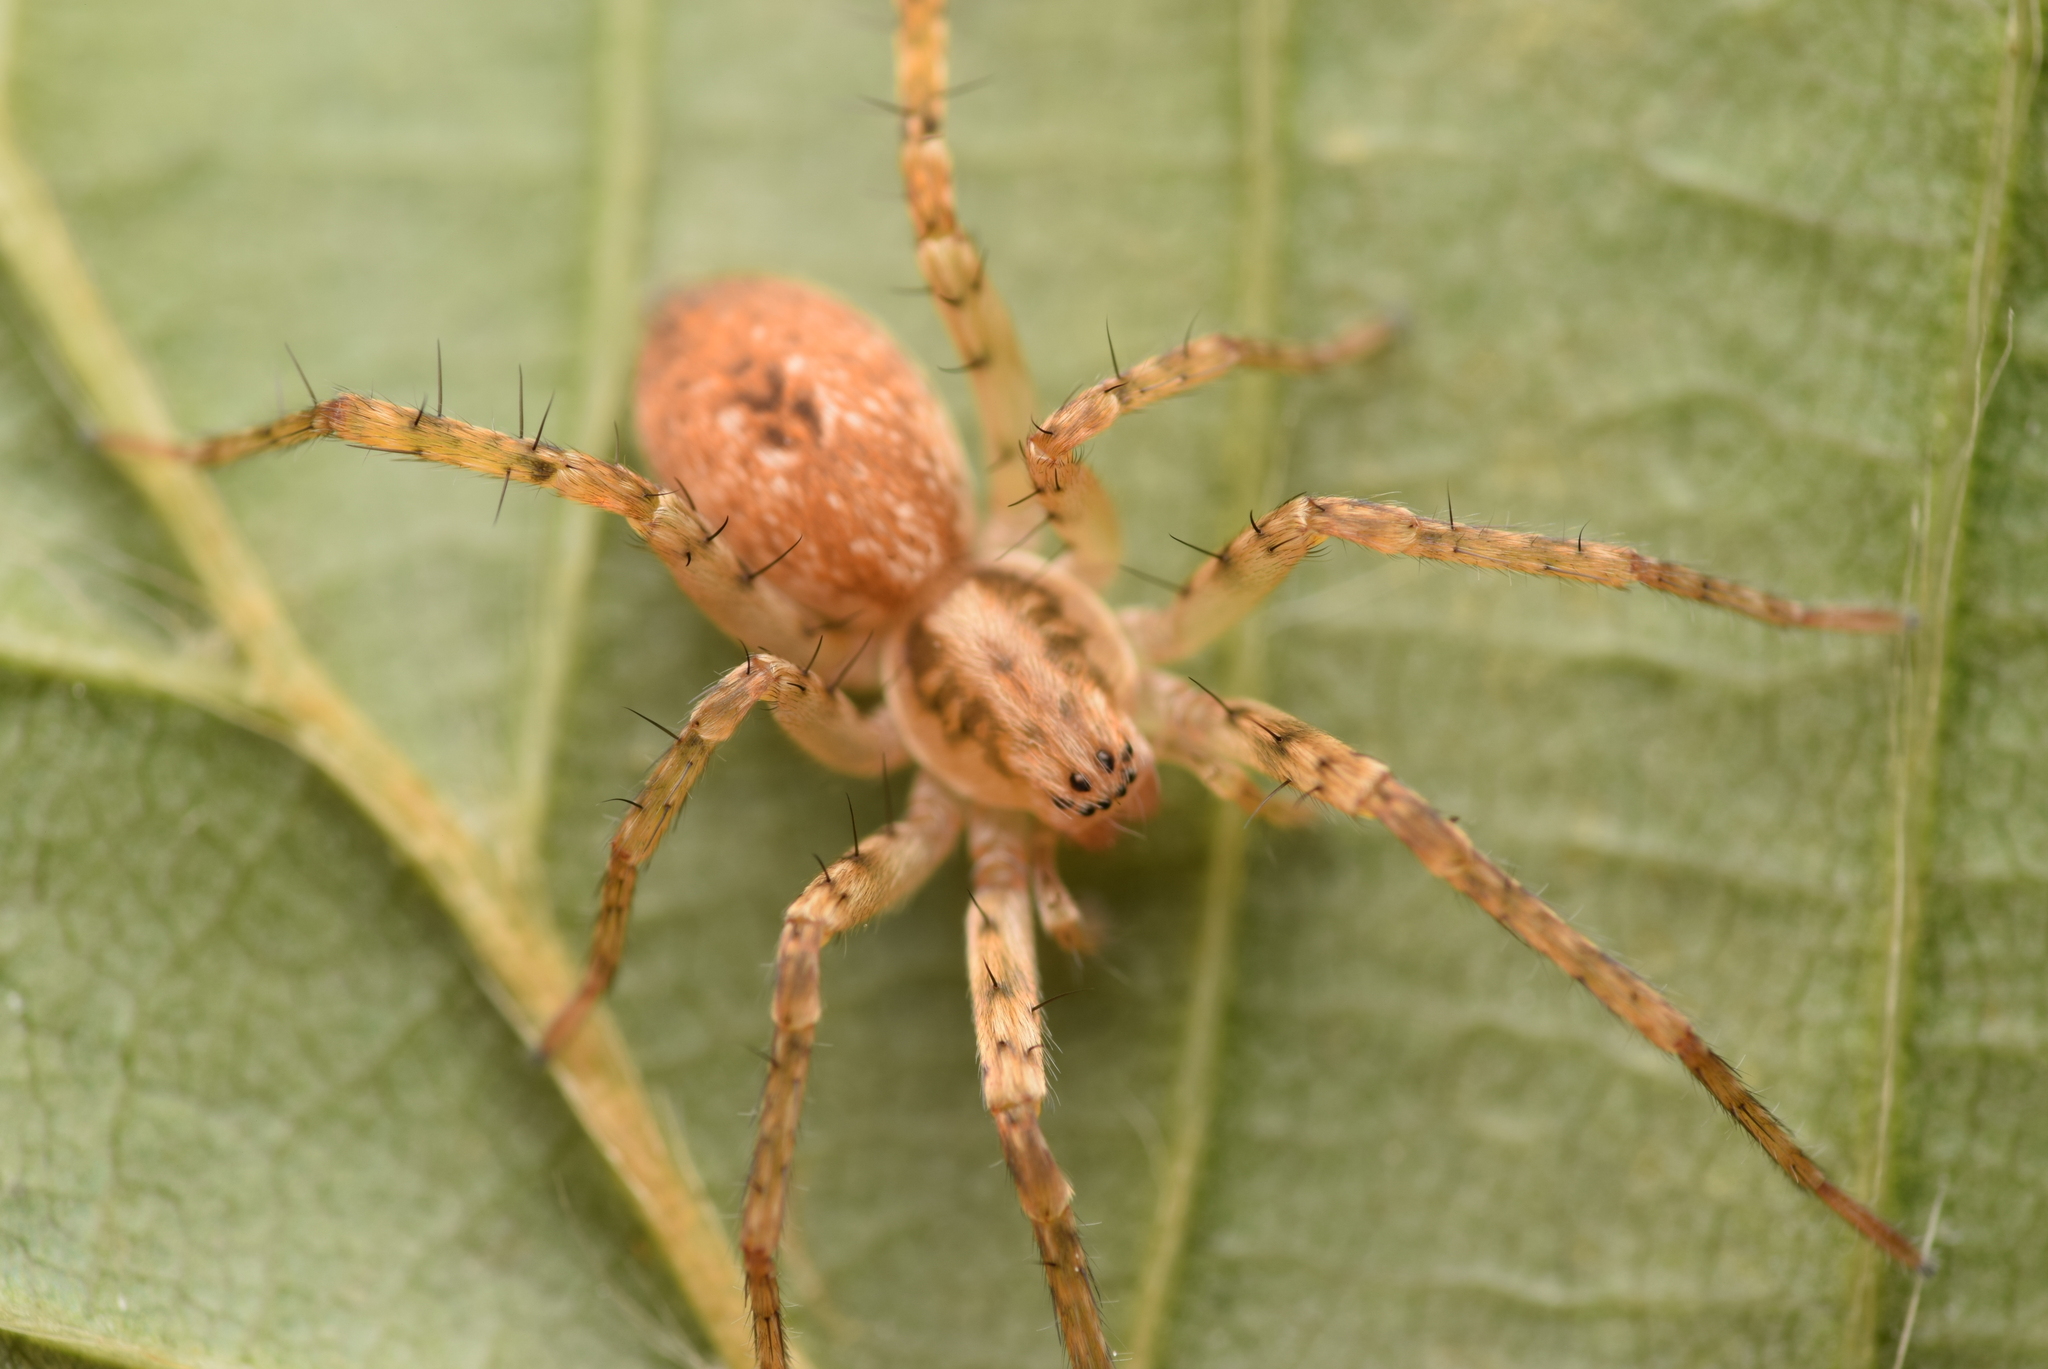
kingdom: Animalia
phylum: Arthropoda
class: Arachnida
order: Araneae
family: Anyphaenidae
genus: Anyphaena
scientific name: Anyphaena accentuata
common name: Buzzing spider
